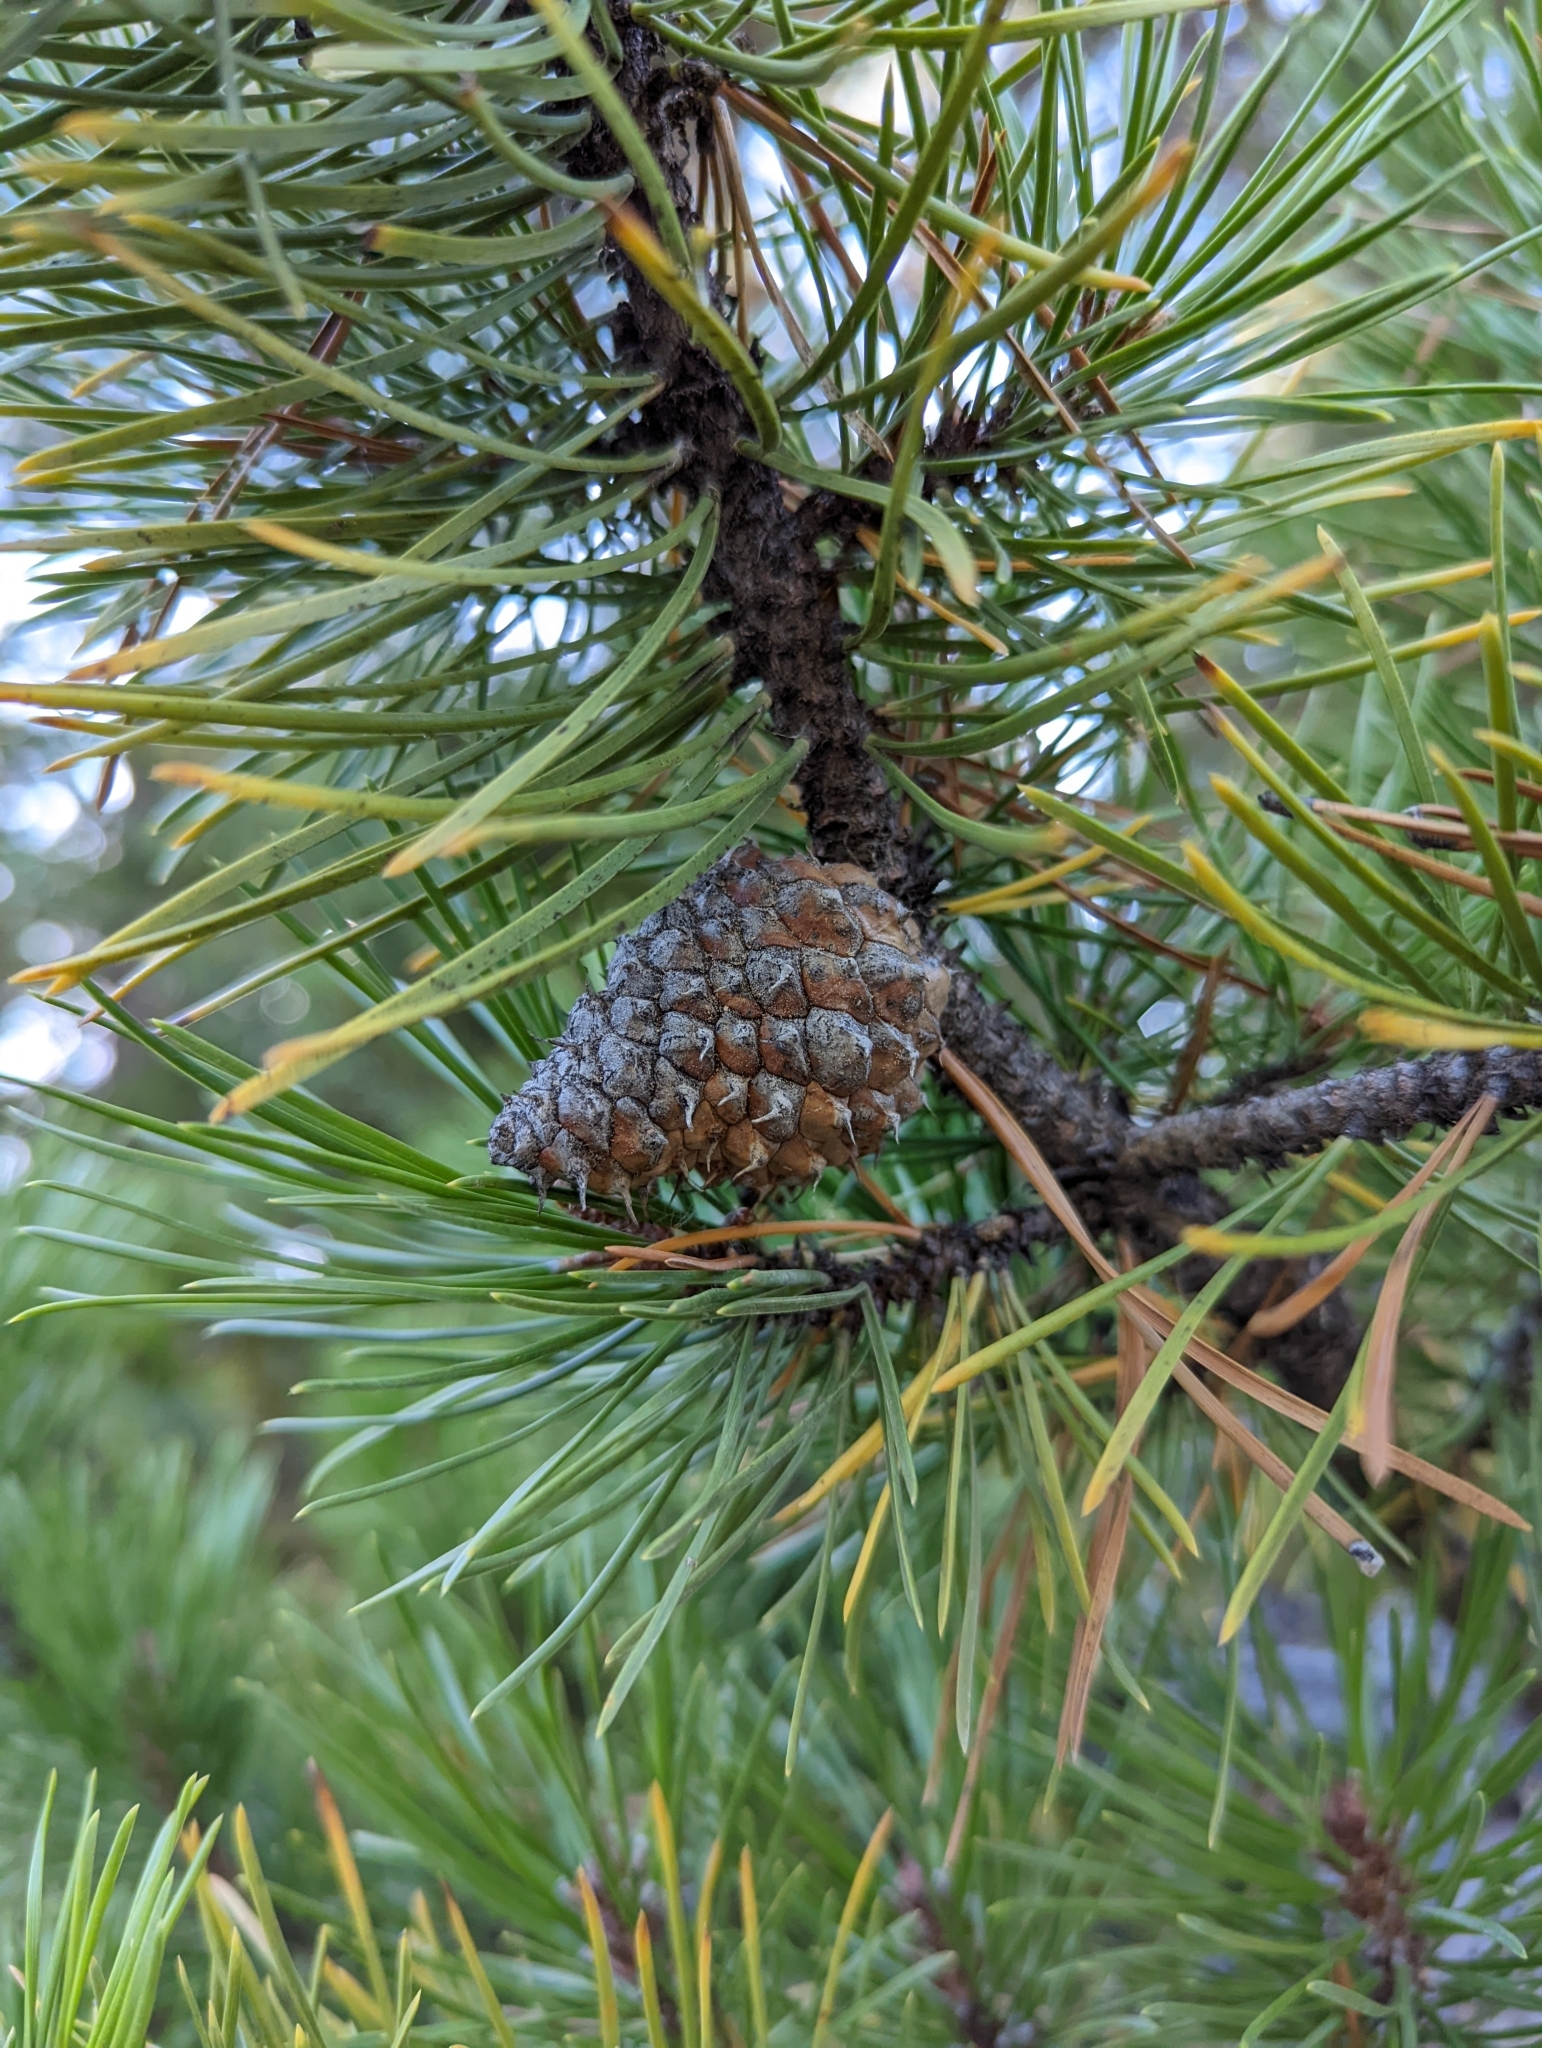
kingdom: Plantae
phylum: Tracheophyta
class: Pinopsida
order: Pinales
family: Pinaceae
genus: Pinus
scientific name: Pinus contorta
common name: Lodgepole pine
